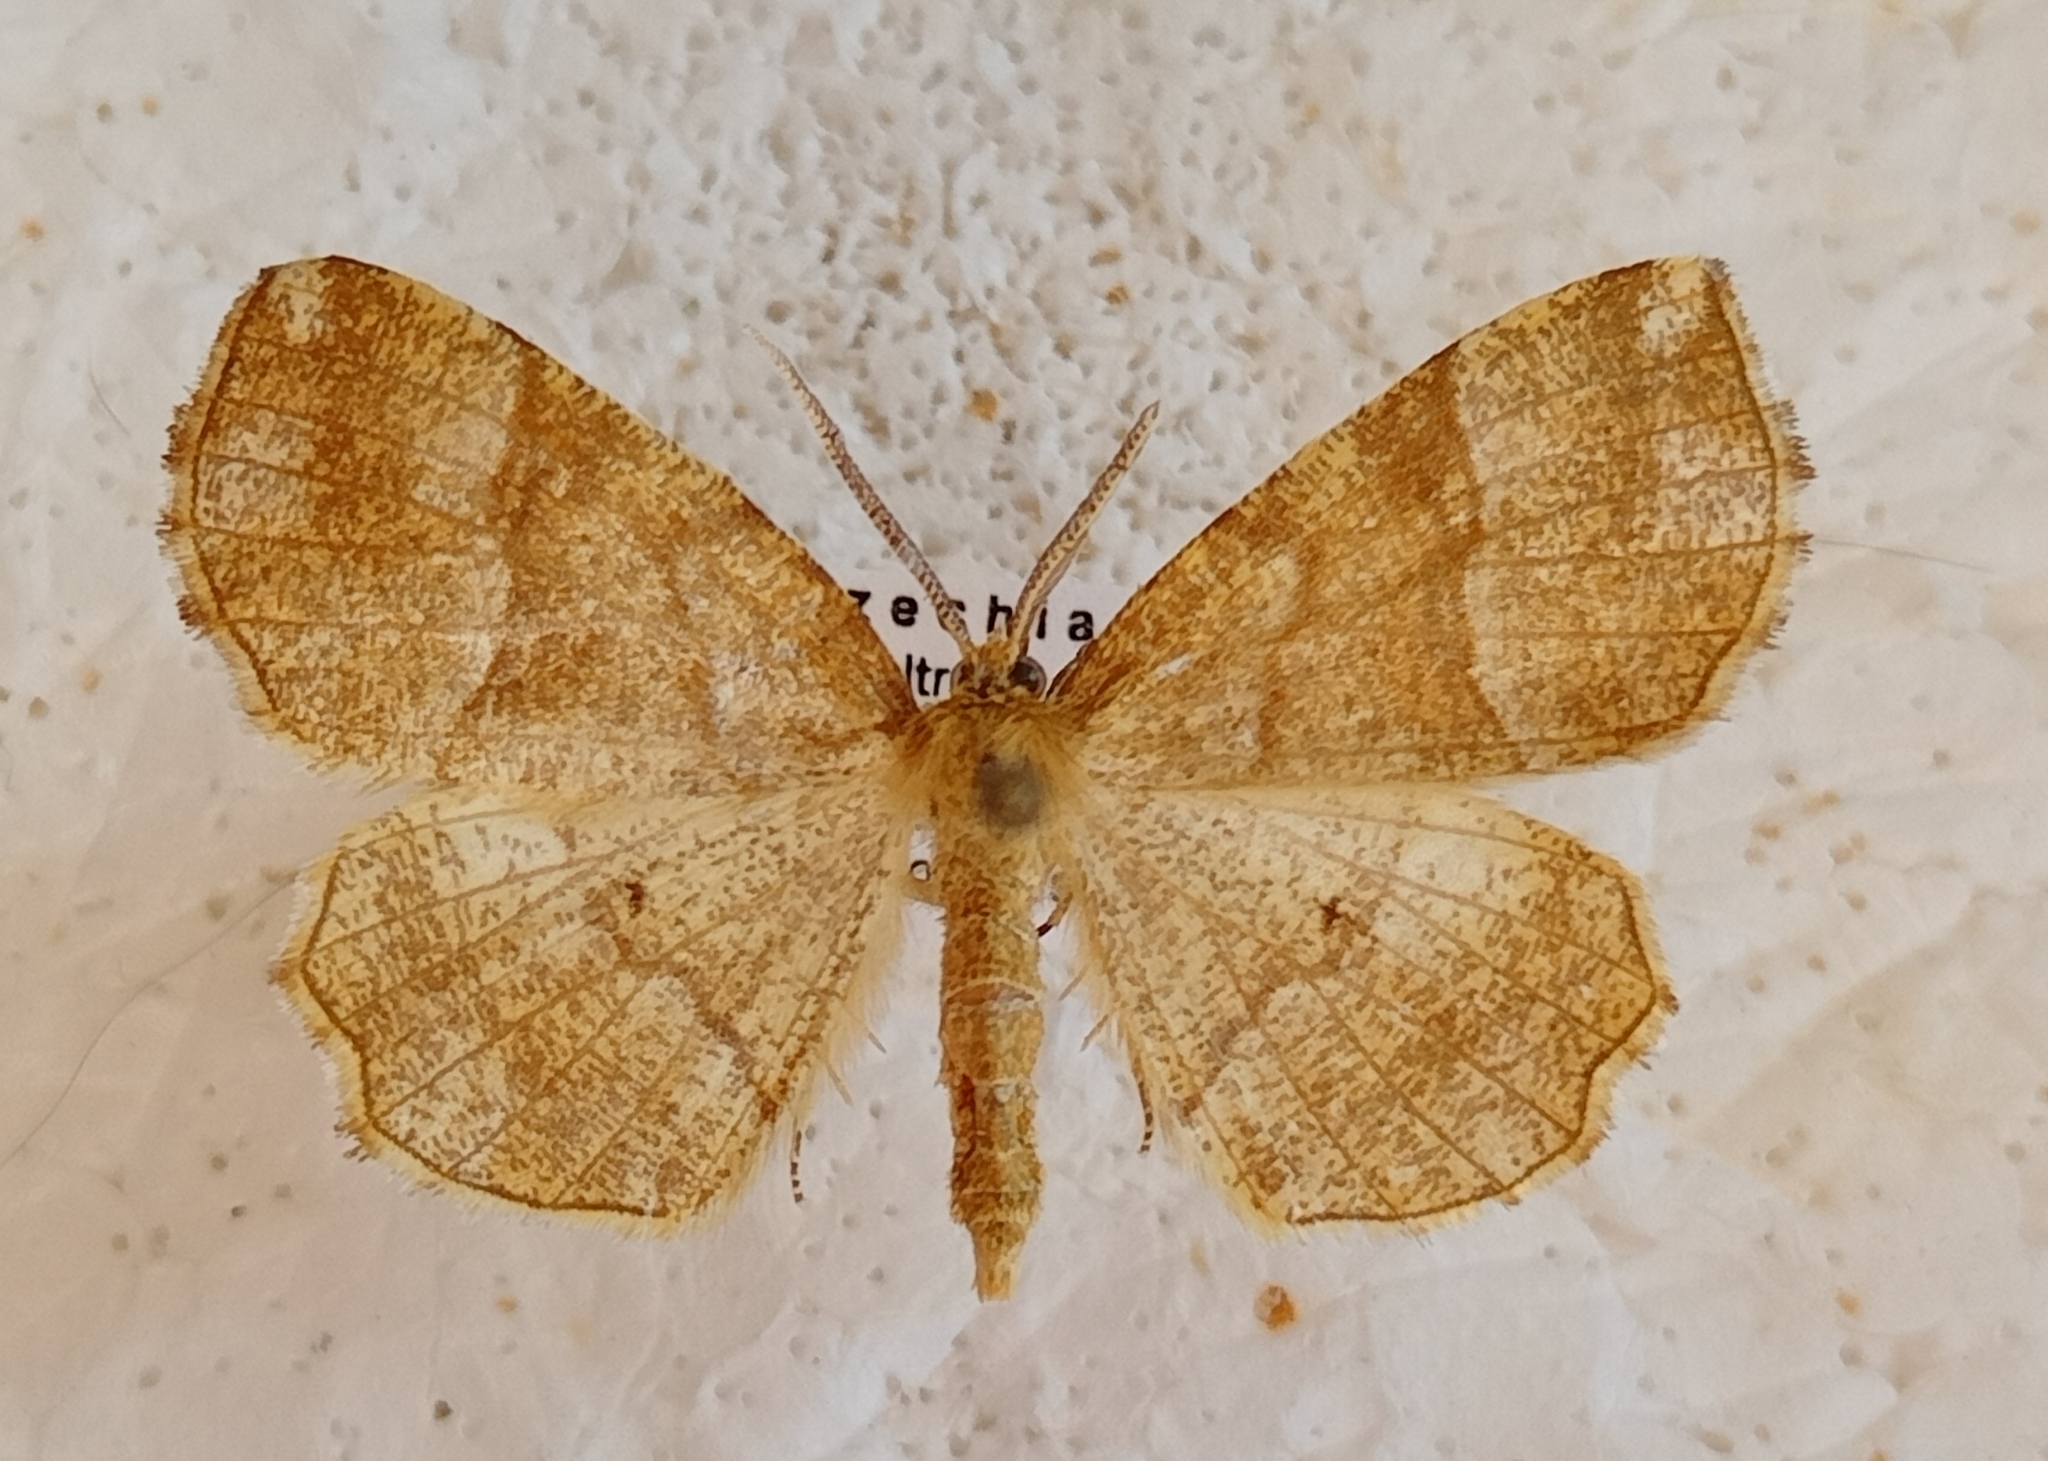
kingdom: Animalia
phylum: Arthropoda
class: Insecta
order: Lepidoptera
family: Geometridae
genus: Cepphis
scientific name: Cepphis advenaria
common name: Little thorn
